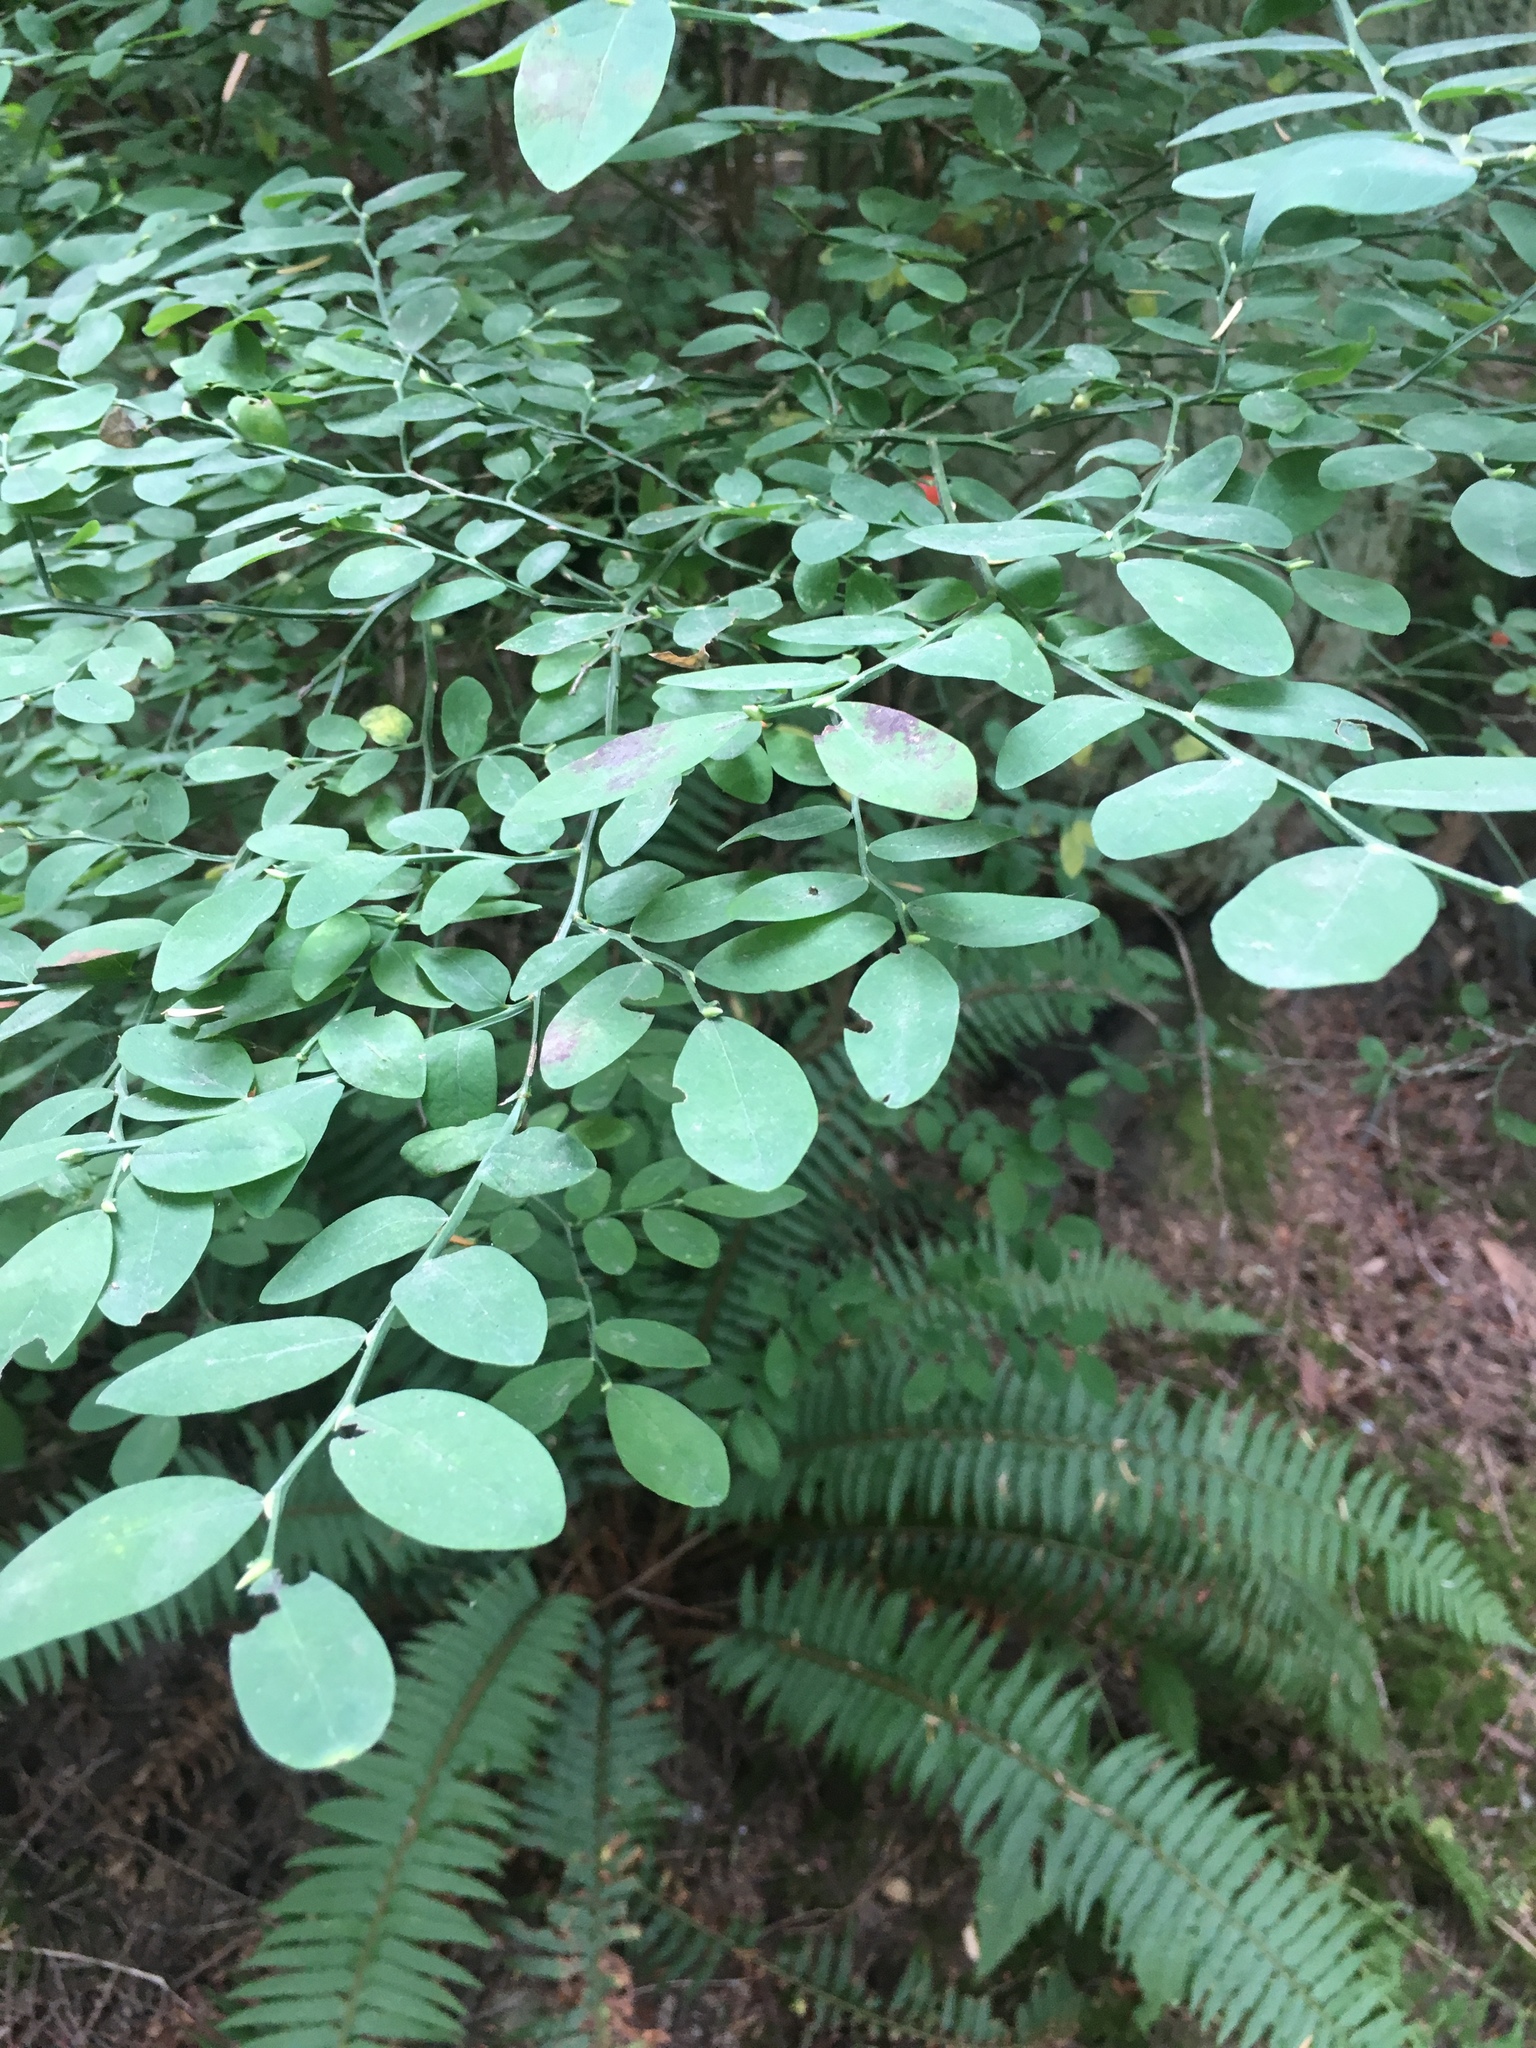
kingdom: Plantae
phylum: Tracheophyta
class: Magnoliopsida
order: Ericales
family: Ericaceae
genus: Vaccinium
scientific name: Vaccinium parvifolium
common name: Red-huckleberry
